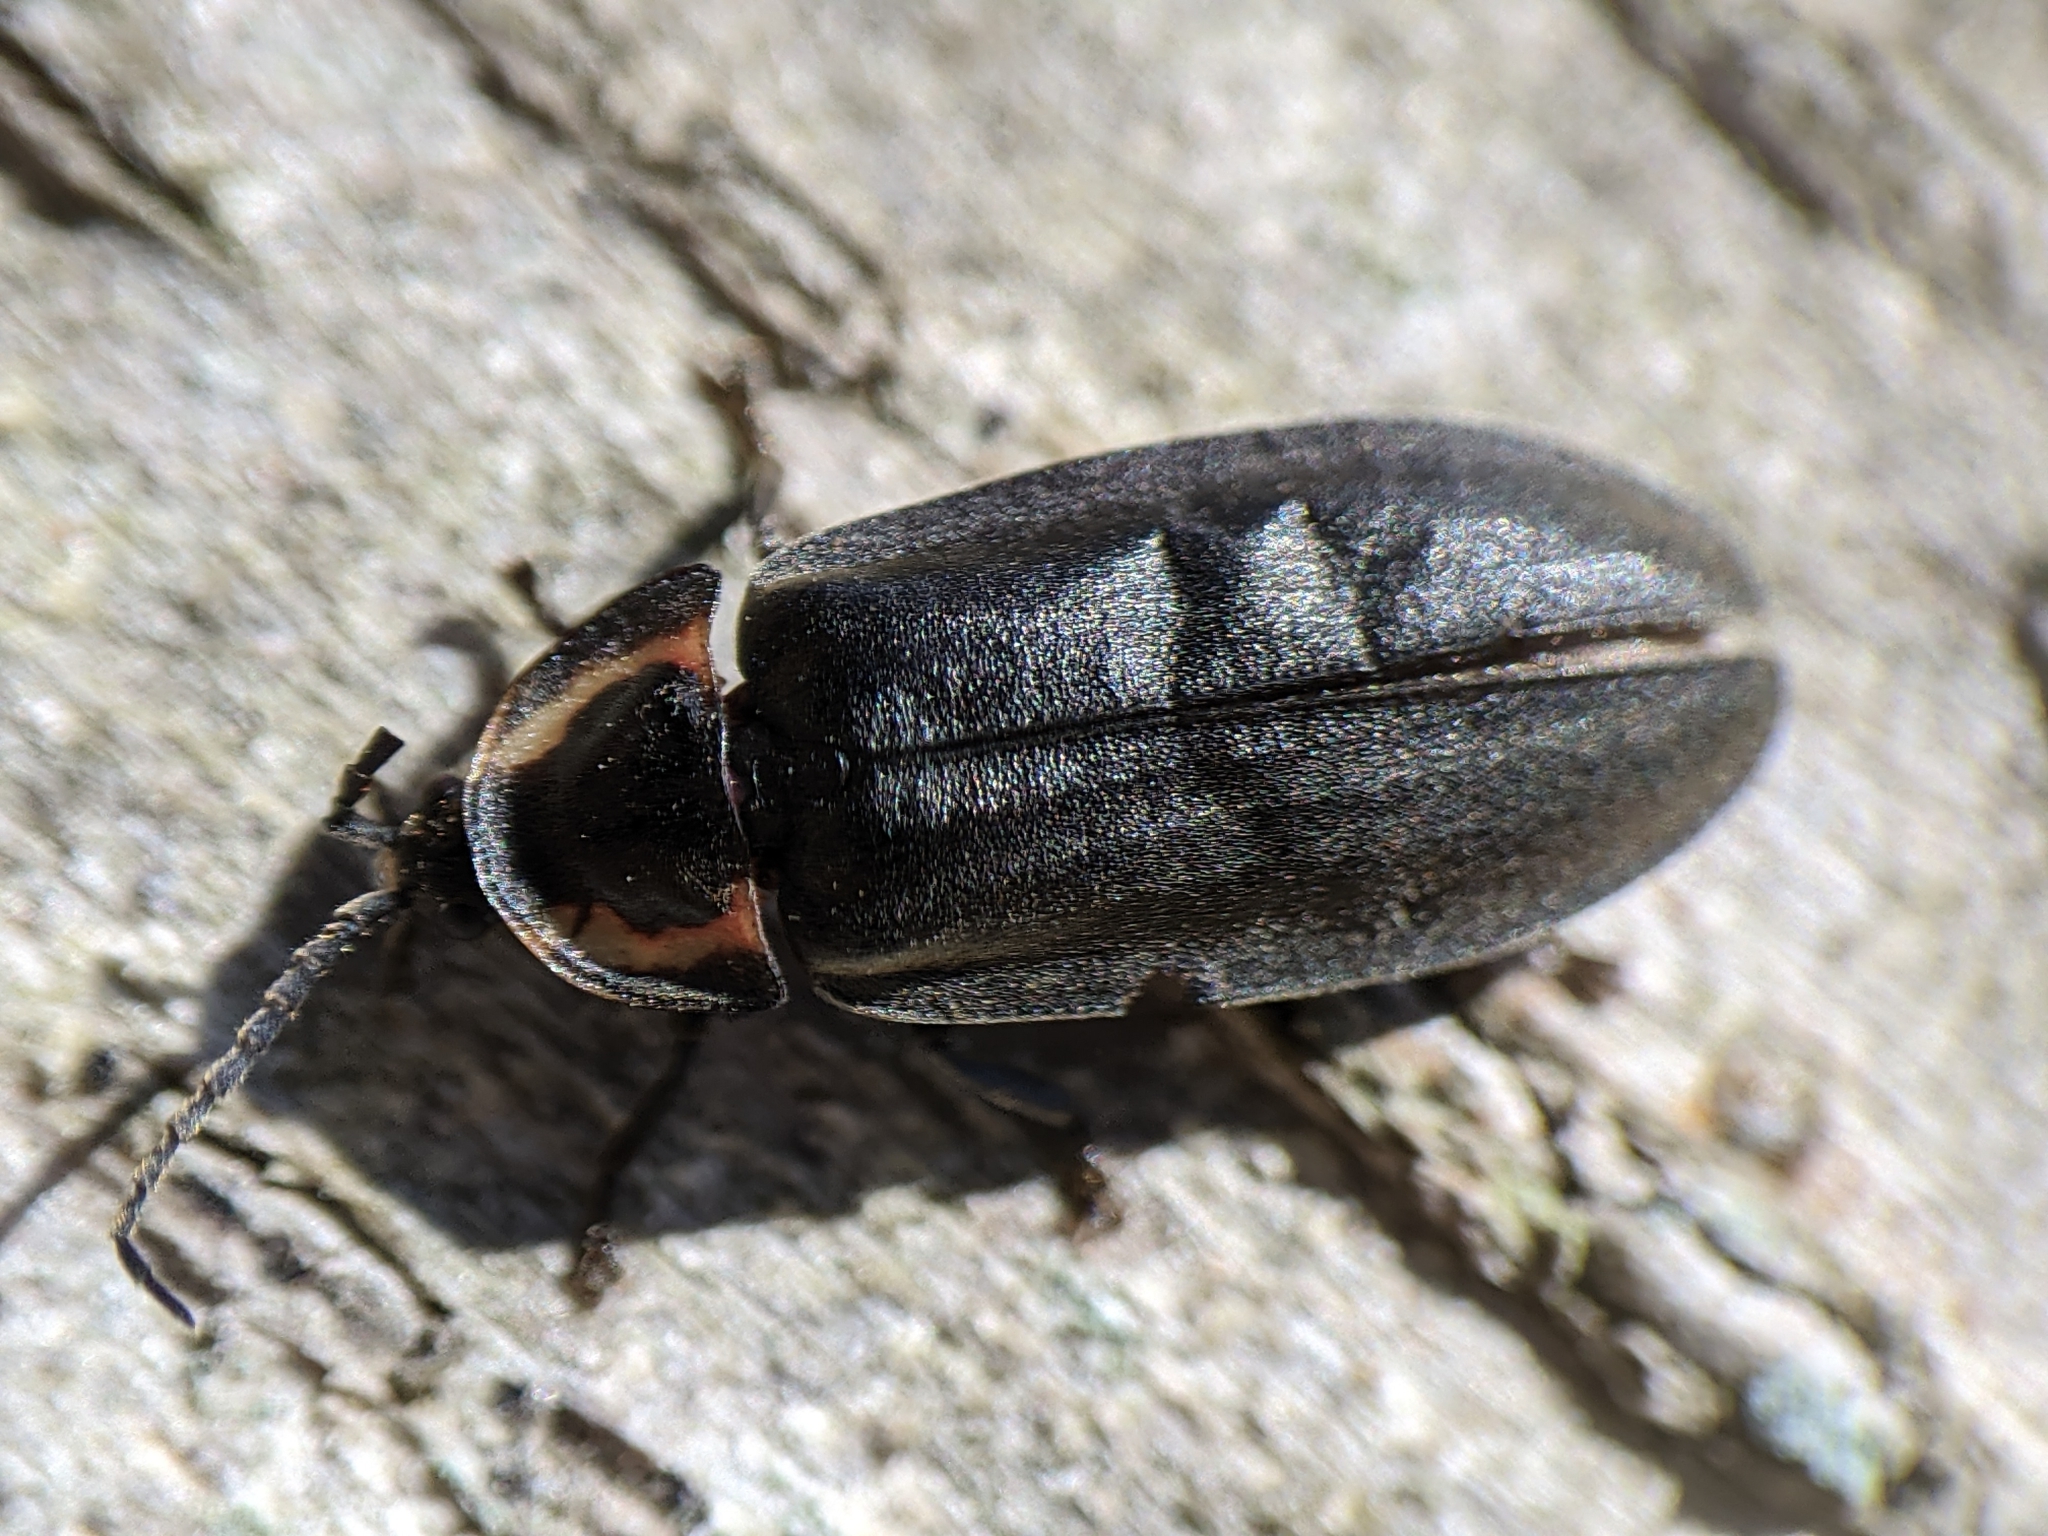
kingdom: Animalia
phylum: Arthropoda
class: Insecta
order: Coleoptera
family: Lampyridae
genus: Photinus
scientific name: Photinus corrusca
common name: Winter firefly
